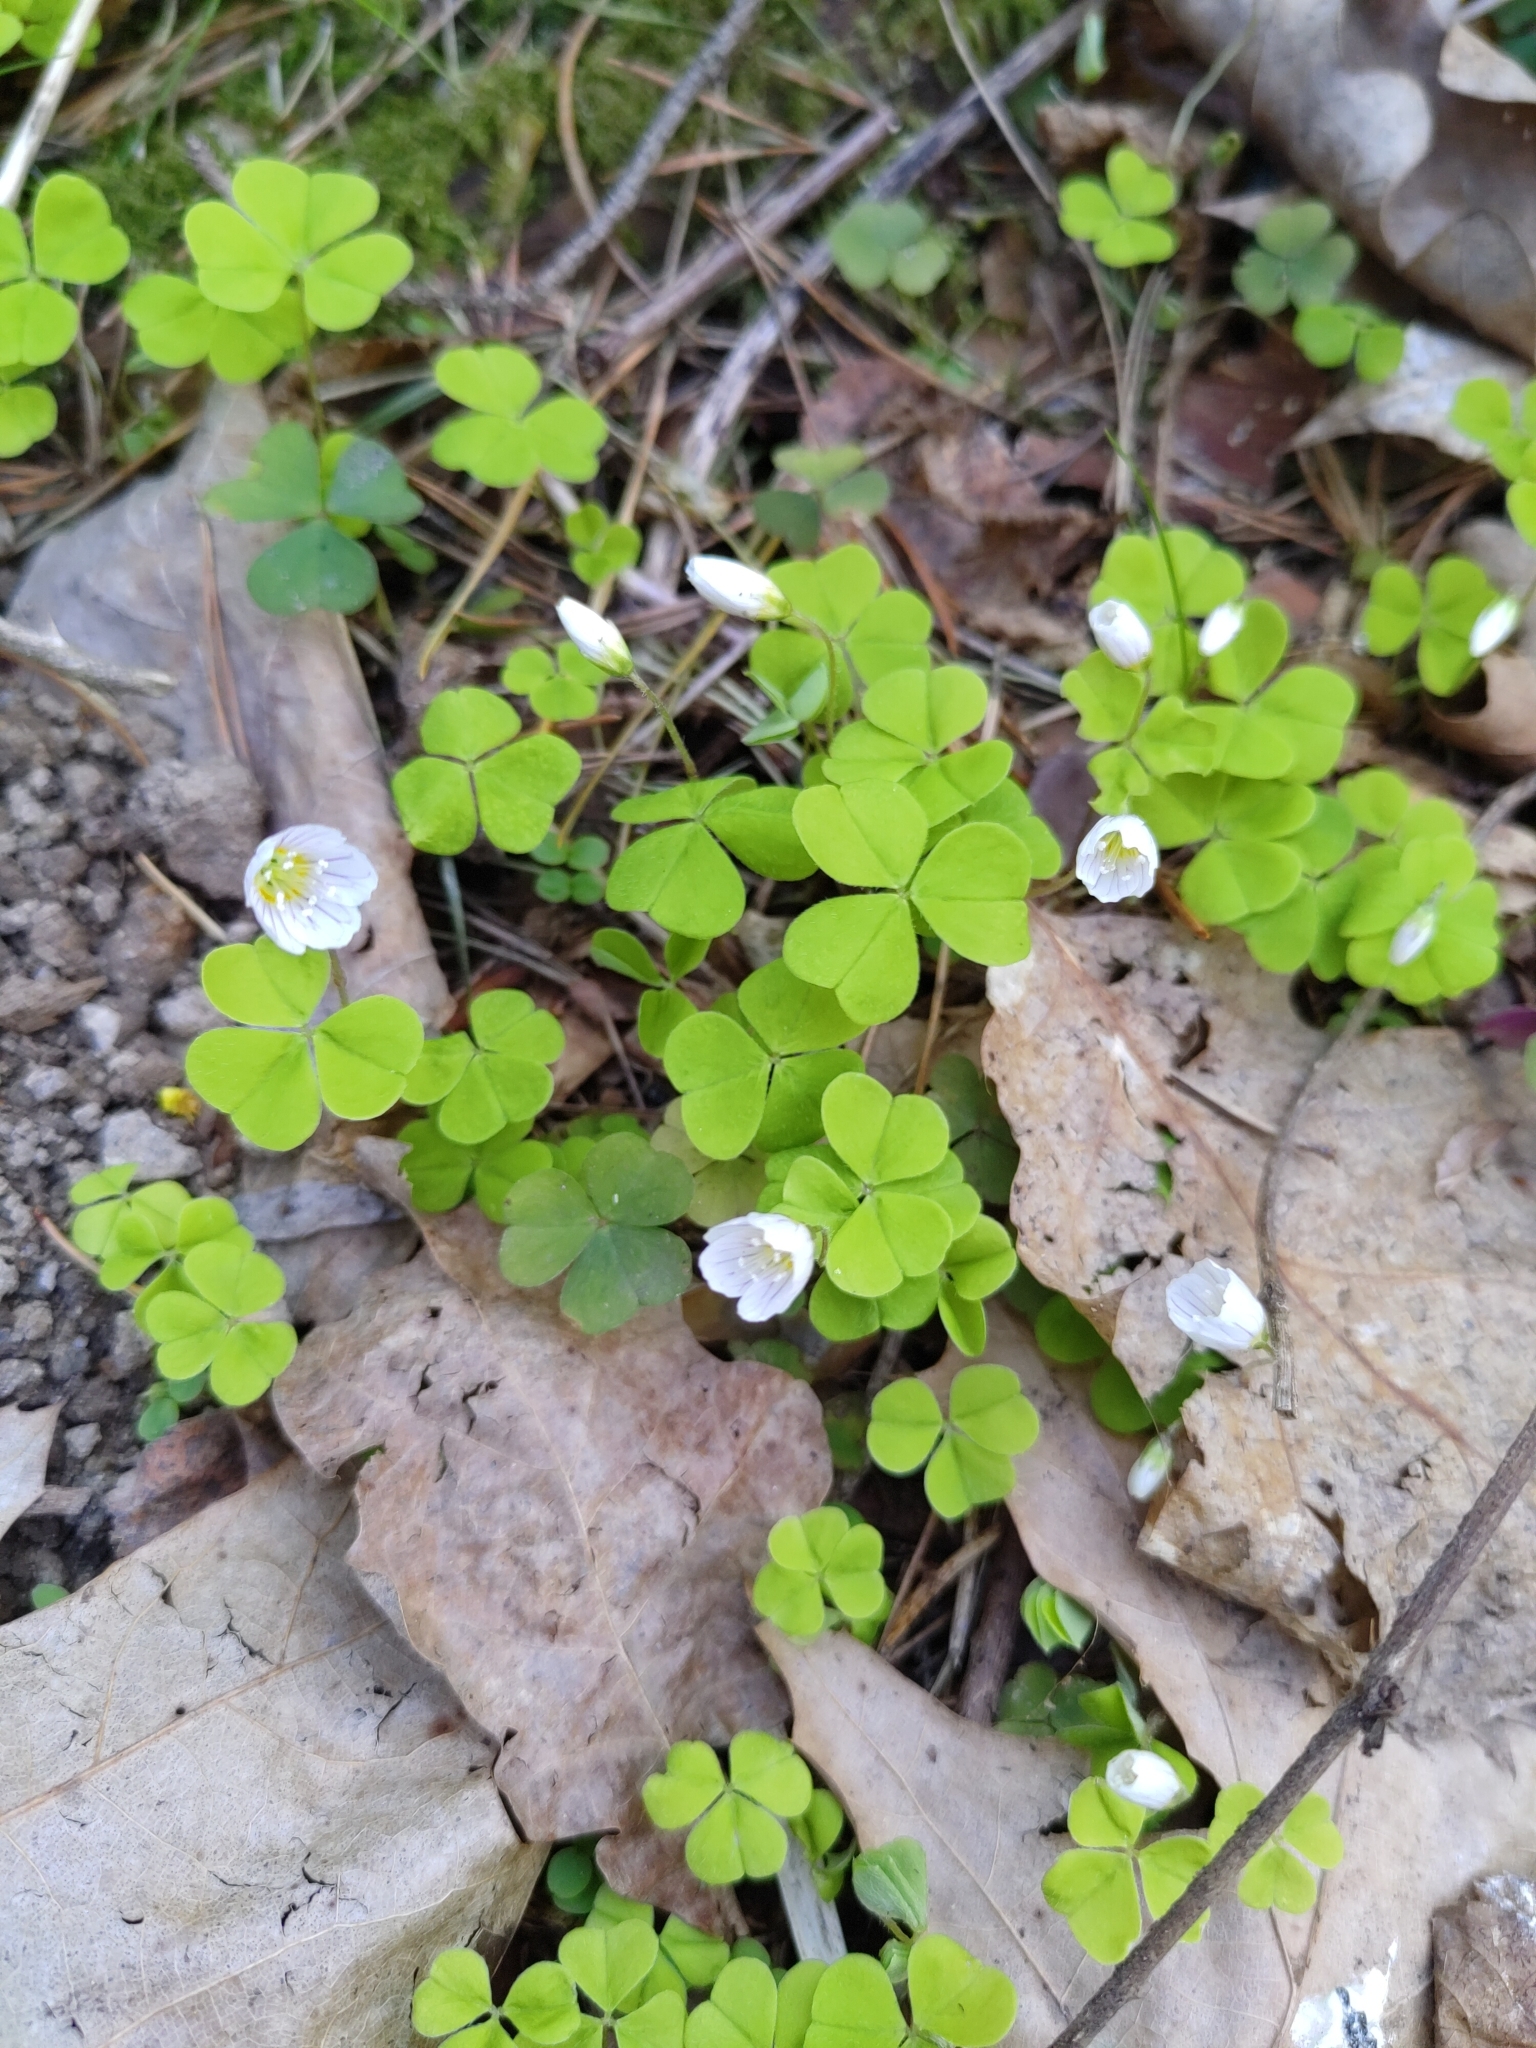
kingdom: Plantae
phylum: Tracheophyta
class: Magnoliopsida
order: Oxalidales
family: Oxalidaceae
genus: Oxalis
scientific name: Oxalis acetosella
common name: Wood-sorrel
